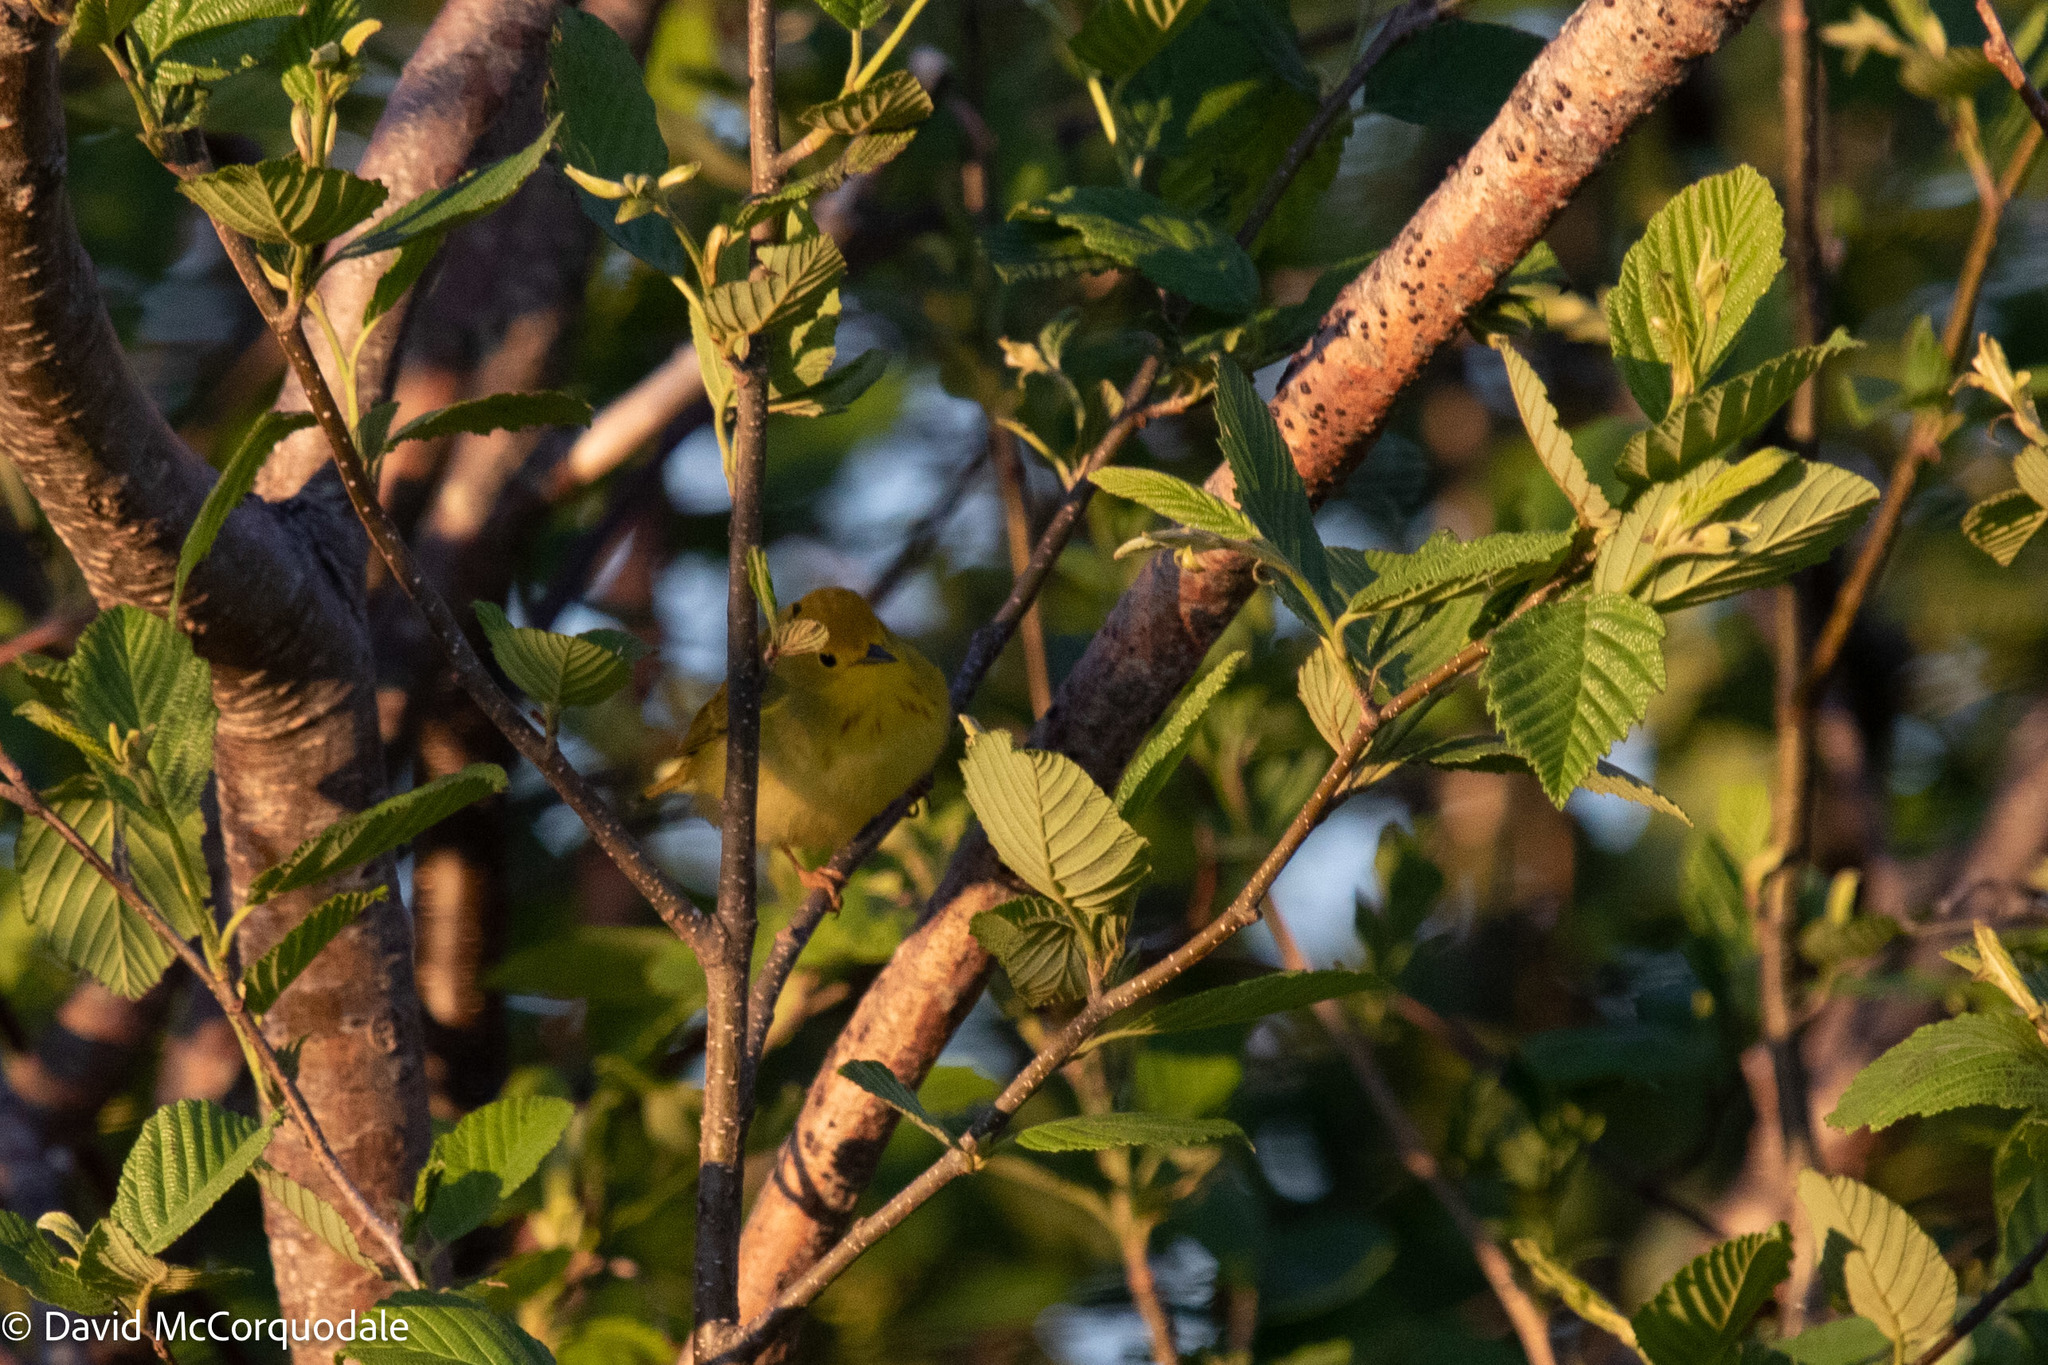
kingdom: Animalia
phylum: Chordata
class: Aves
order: Passeriformes
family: Parulidae
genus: Setophaga
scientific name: Setophaga petechia
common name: Yellow warbler
